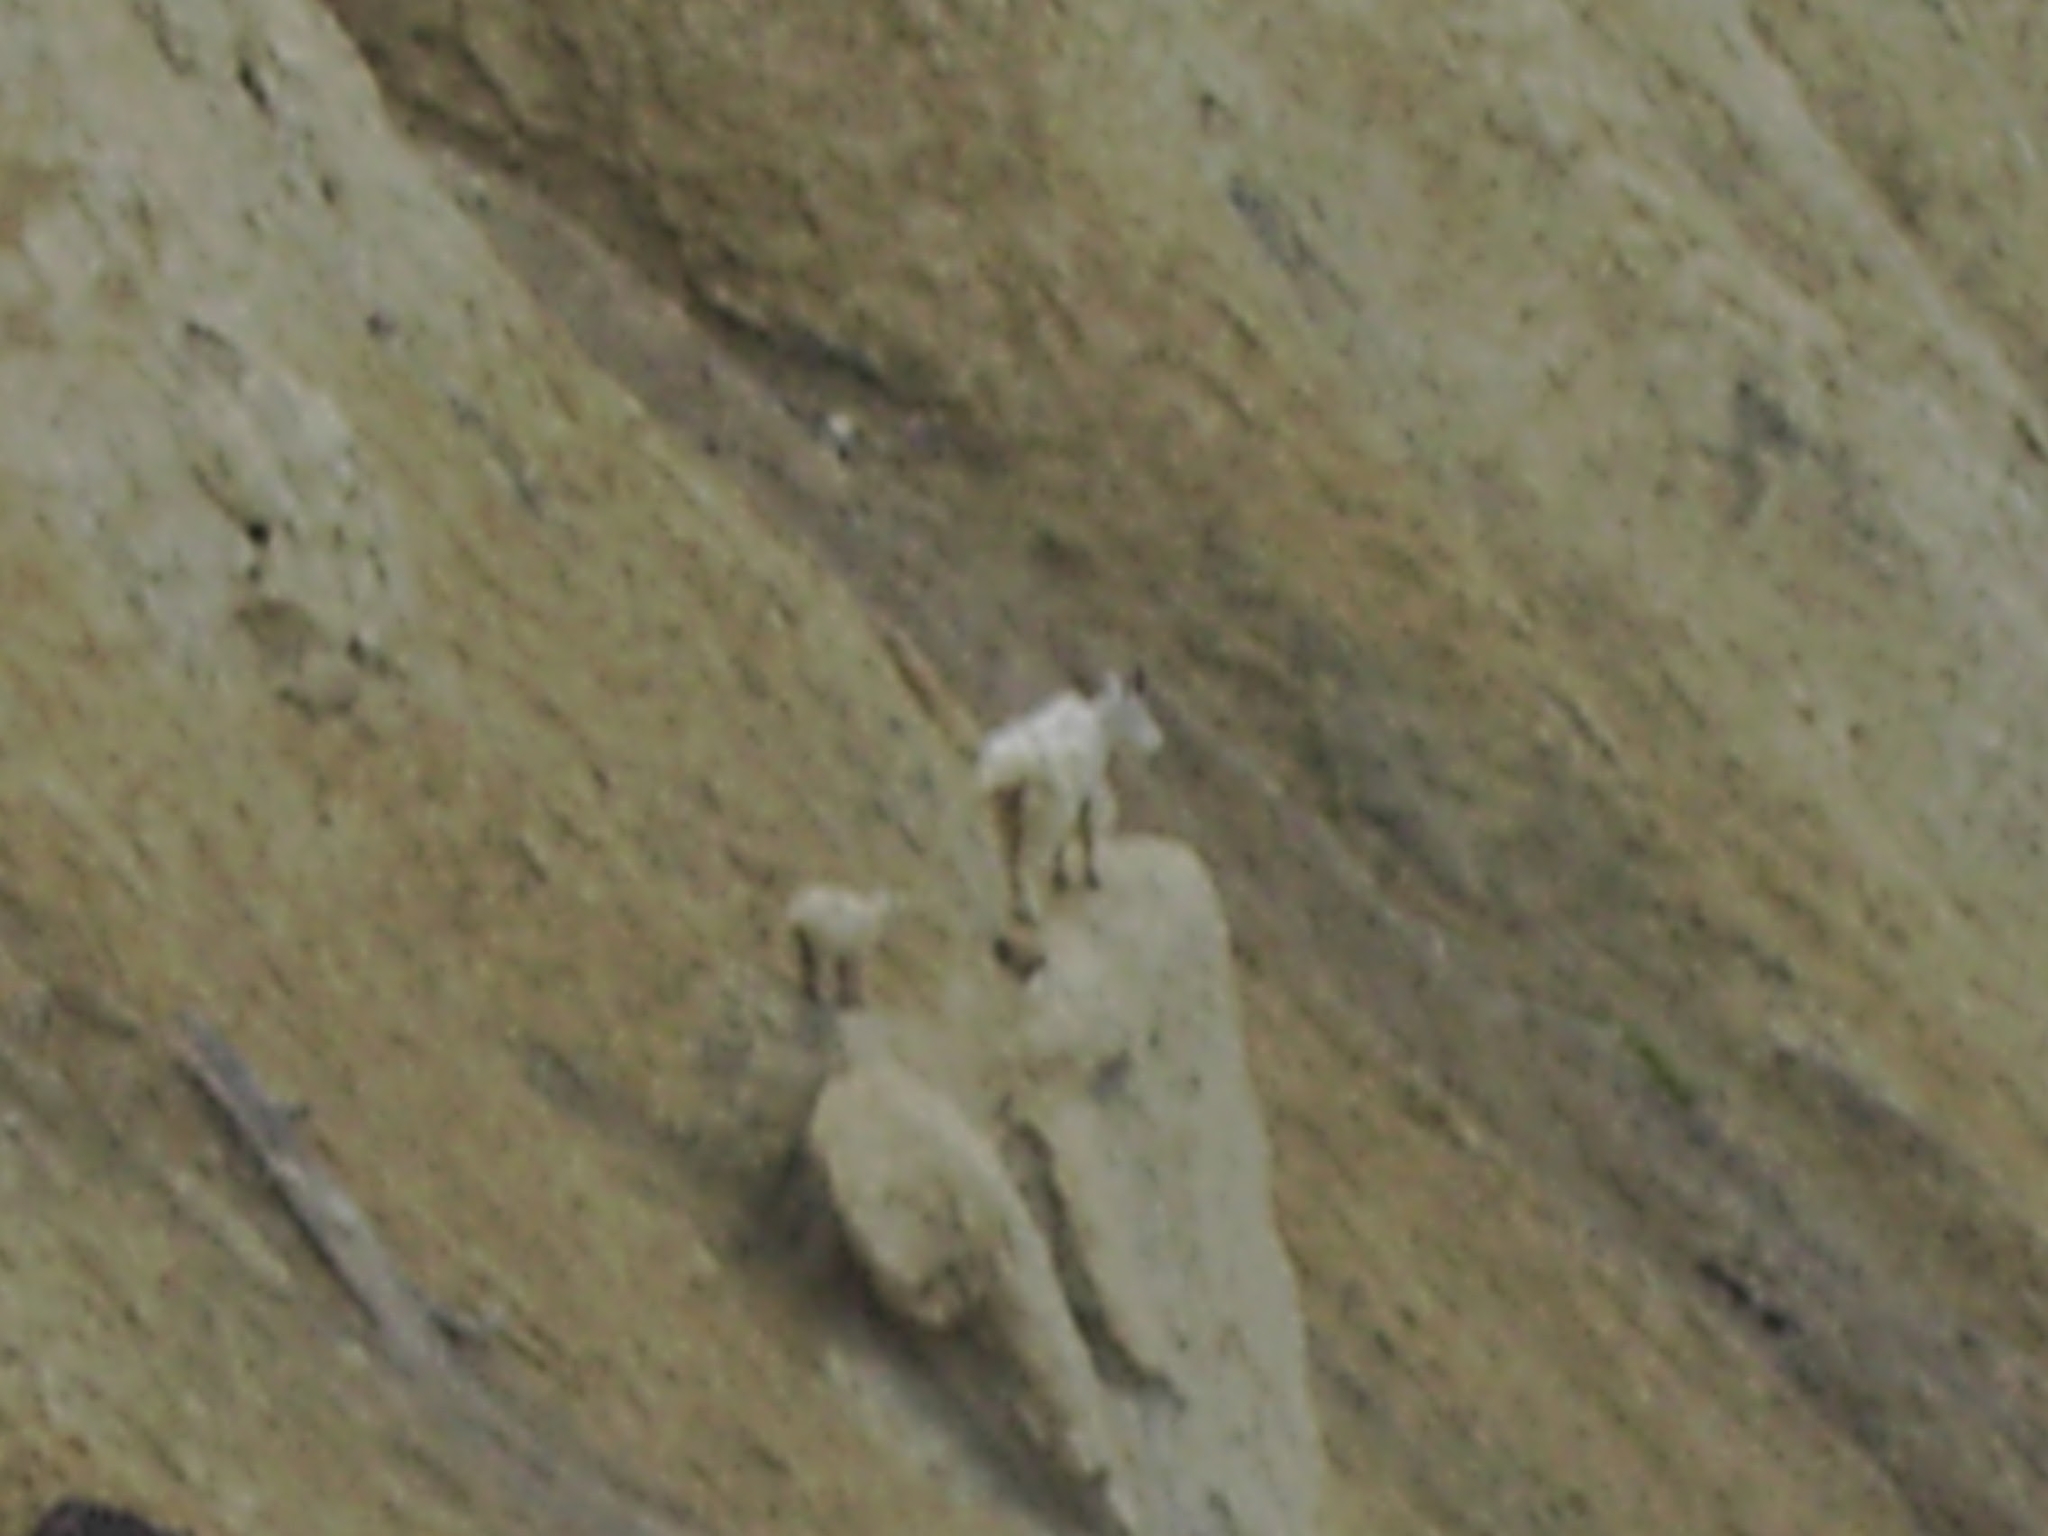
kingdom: Animalia
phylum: Chordata
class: Mammalia
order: Artiodactyla
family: Bovidae
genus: Oreamnos
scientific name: Oreamnos americanus
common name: Mountain goat
